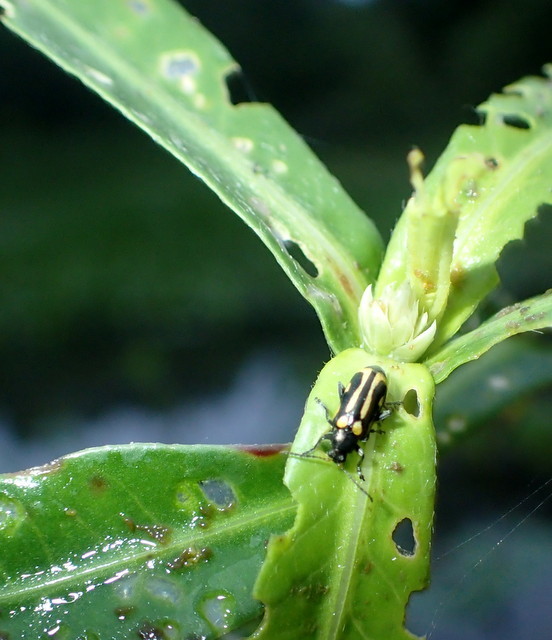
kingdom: Animalia
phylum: Arthropoda
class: Insecta
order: Coleoptera
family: Chrysomelidae
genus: Agasicles
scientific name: Agasicles hygrophila
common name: Alligatorweed flea beetle
